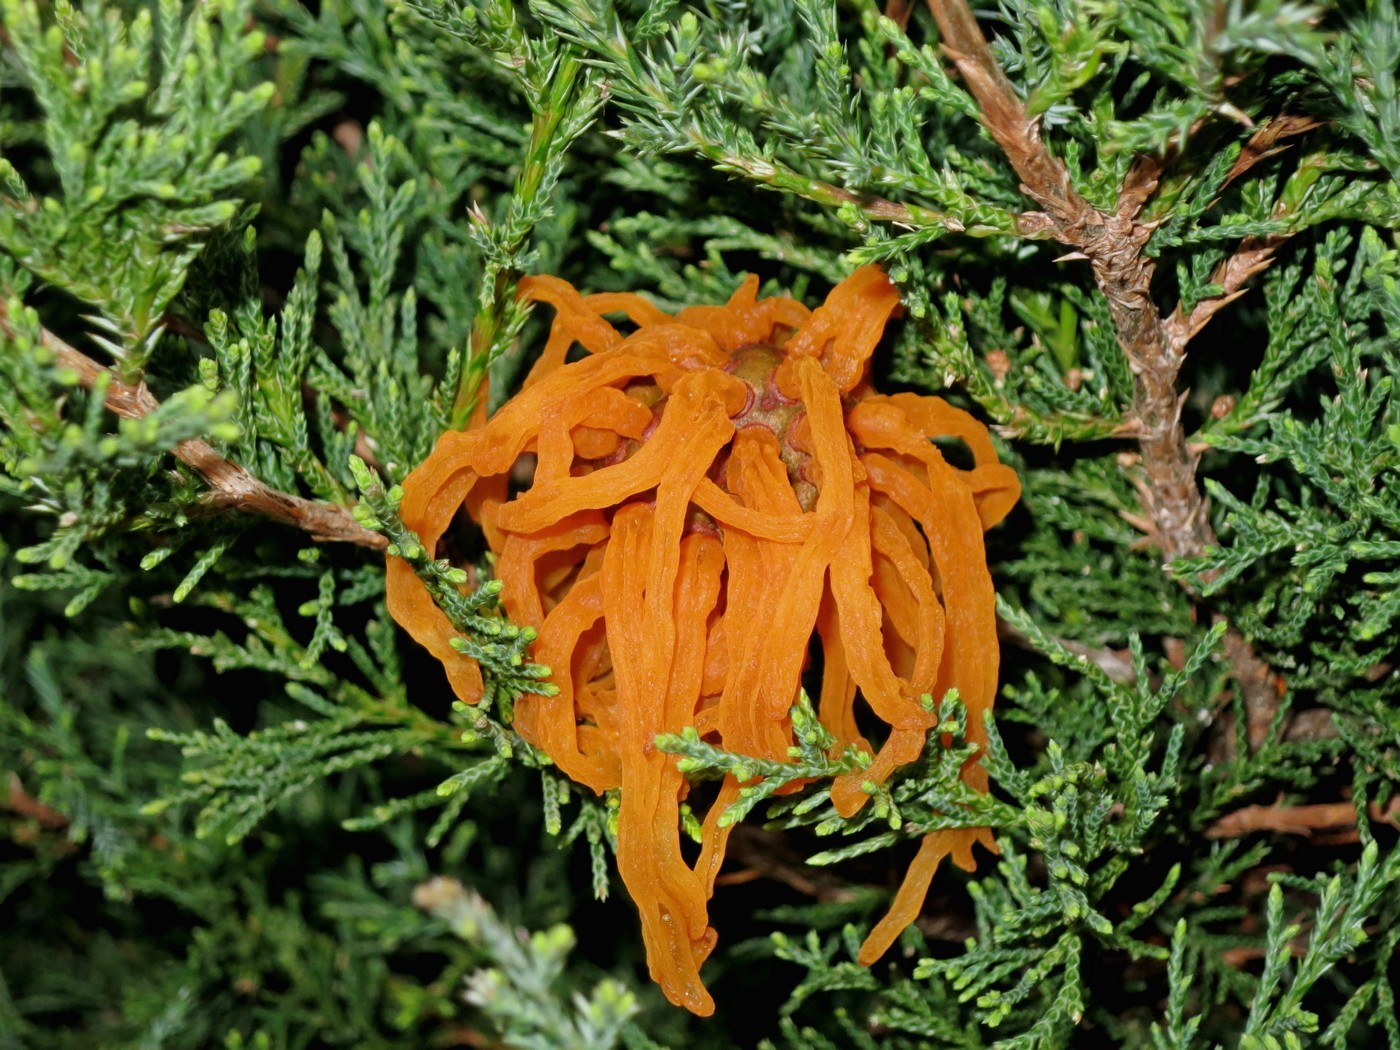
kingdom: Fungi
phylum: Basidiomycota
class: Pucciniomycetes
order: Pucciniales
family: Gymnosporangiaceae
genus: Gymnosporangium
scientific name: Gymnosporangium juniperi-virginianae
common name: Juniper-apple rust
